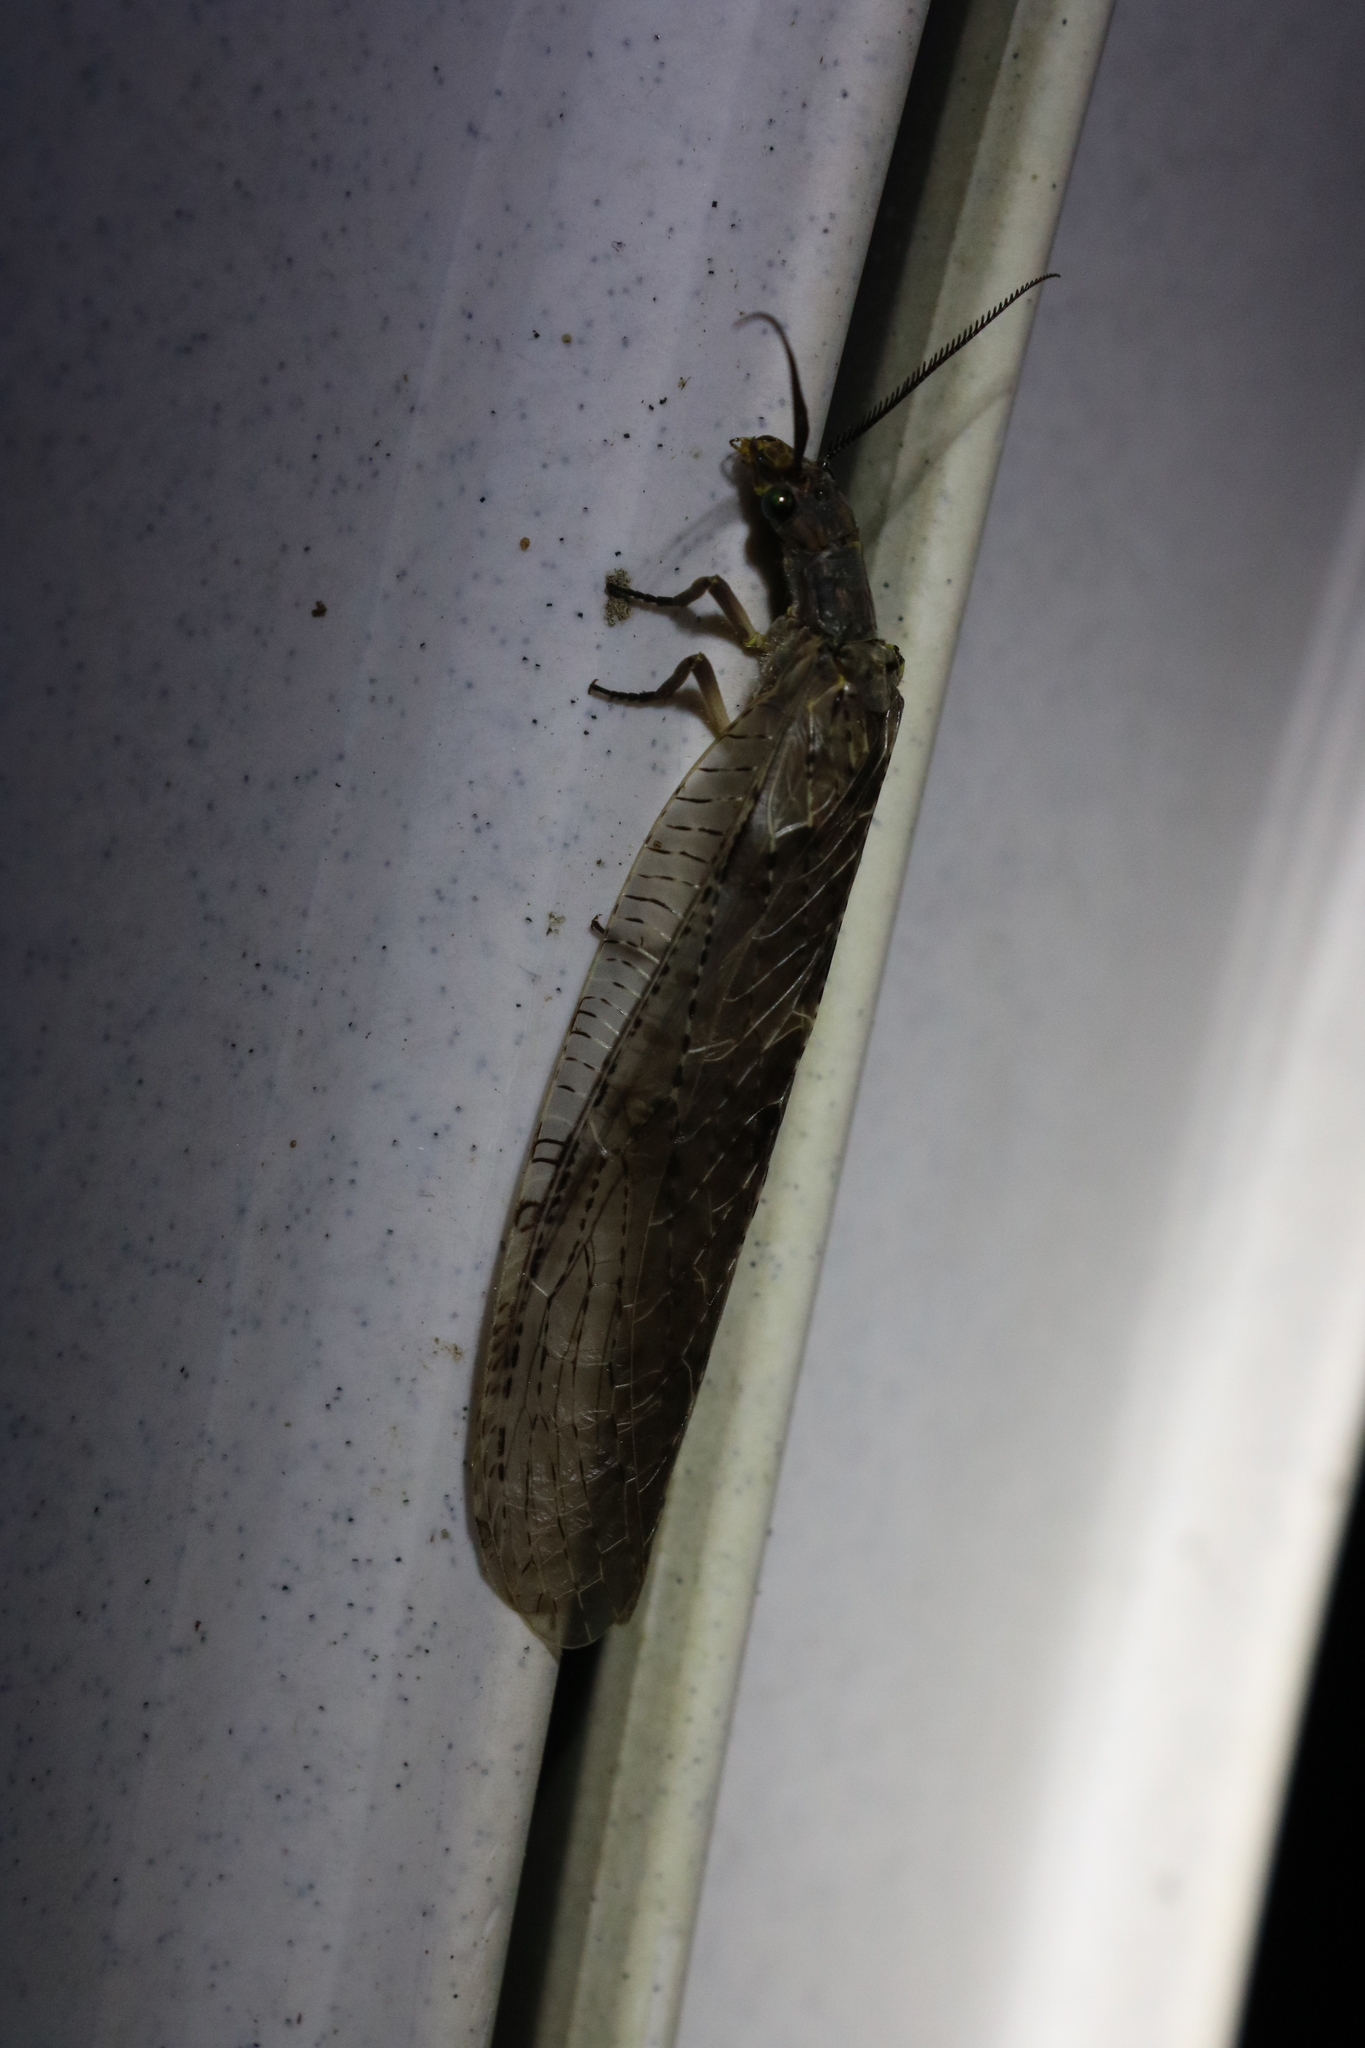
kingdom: Animalia
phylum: Arthropoda
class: Insecta
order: Megaloptera
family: Corydalidae
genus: Chauliodes
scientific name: Chauliodes pectinicornis
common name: Summer fishfly
